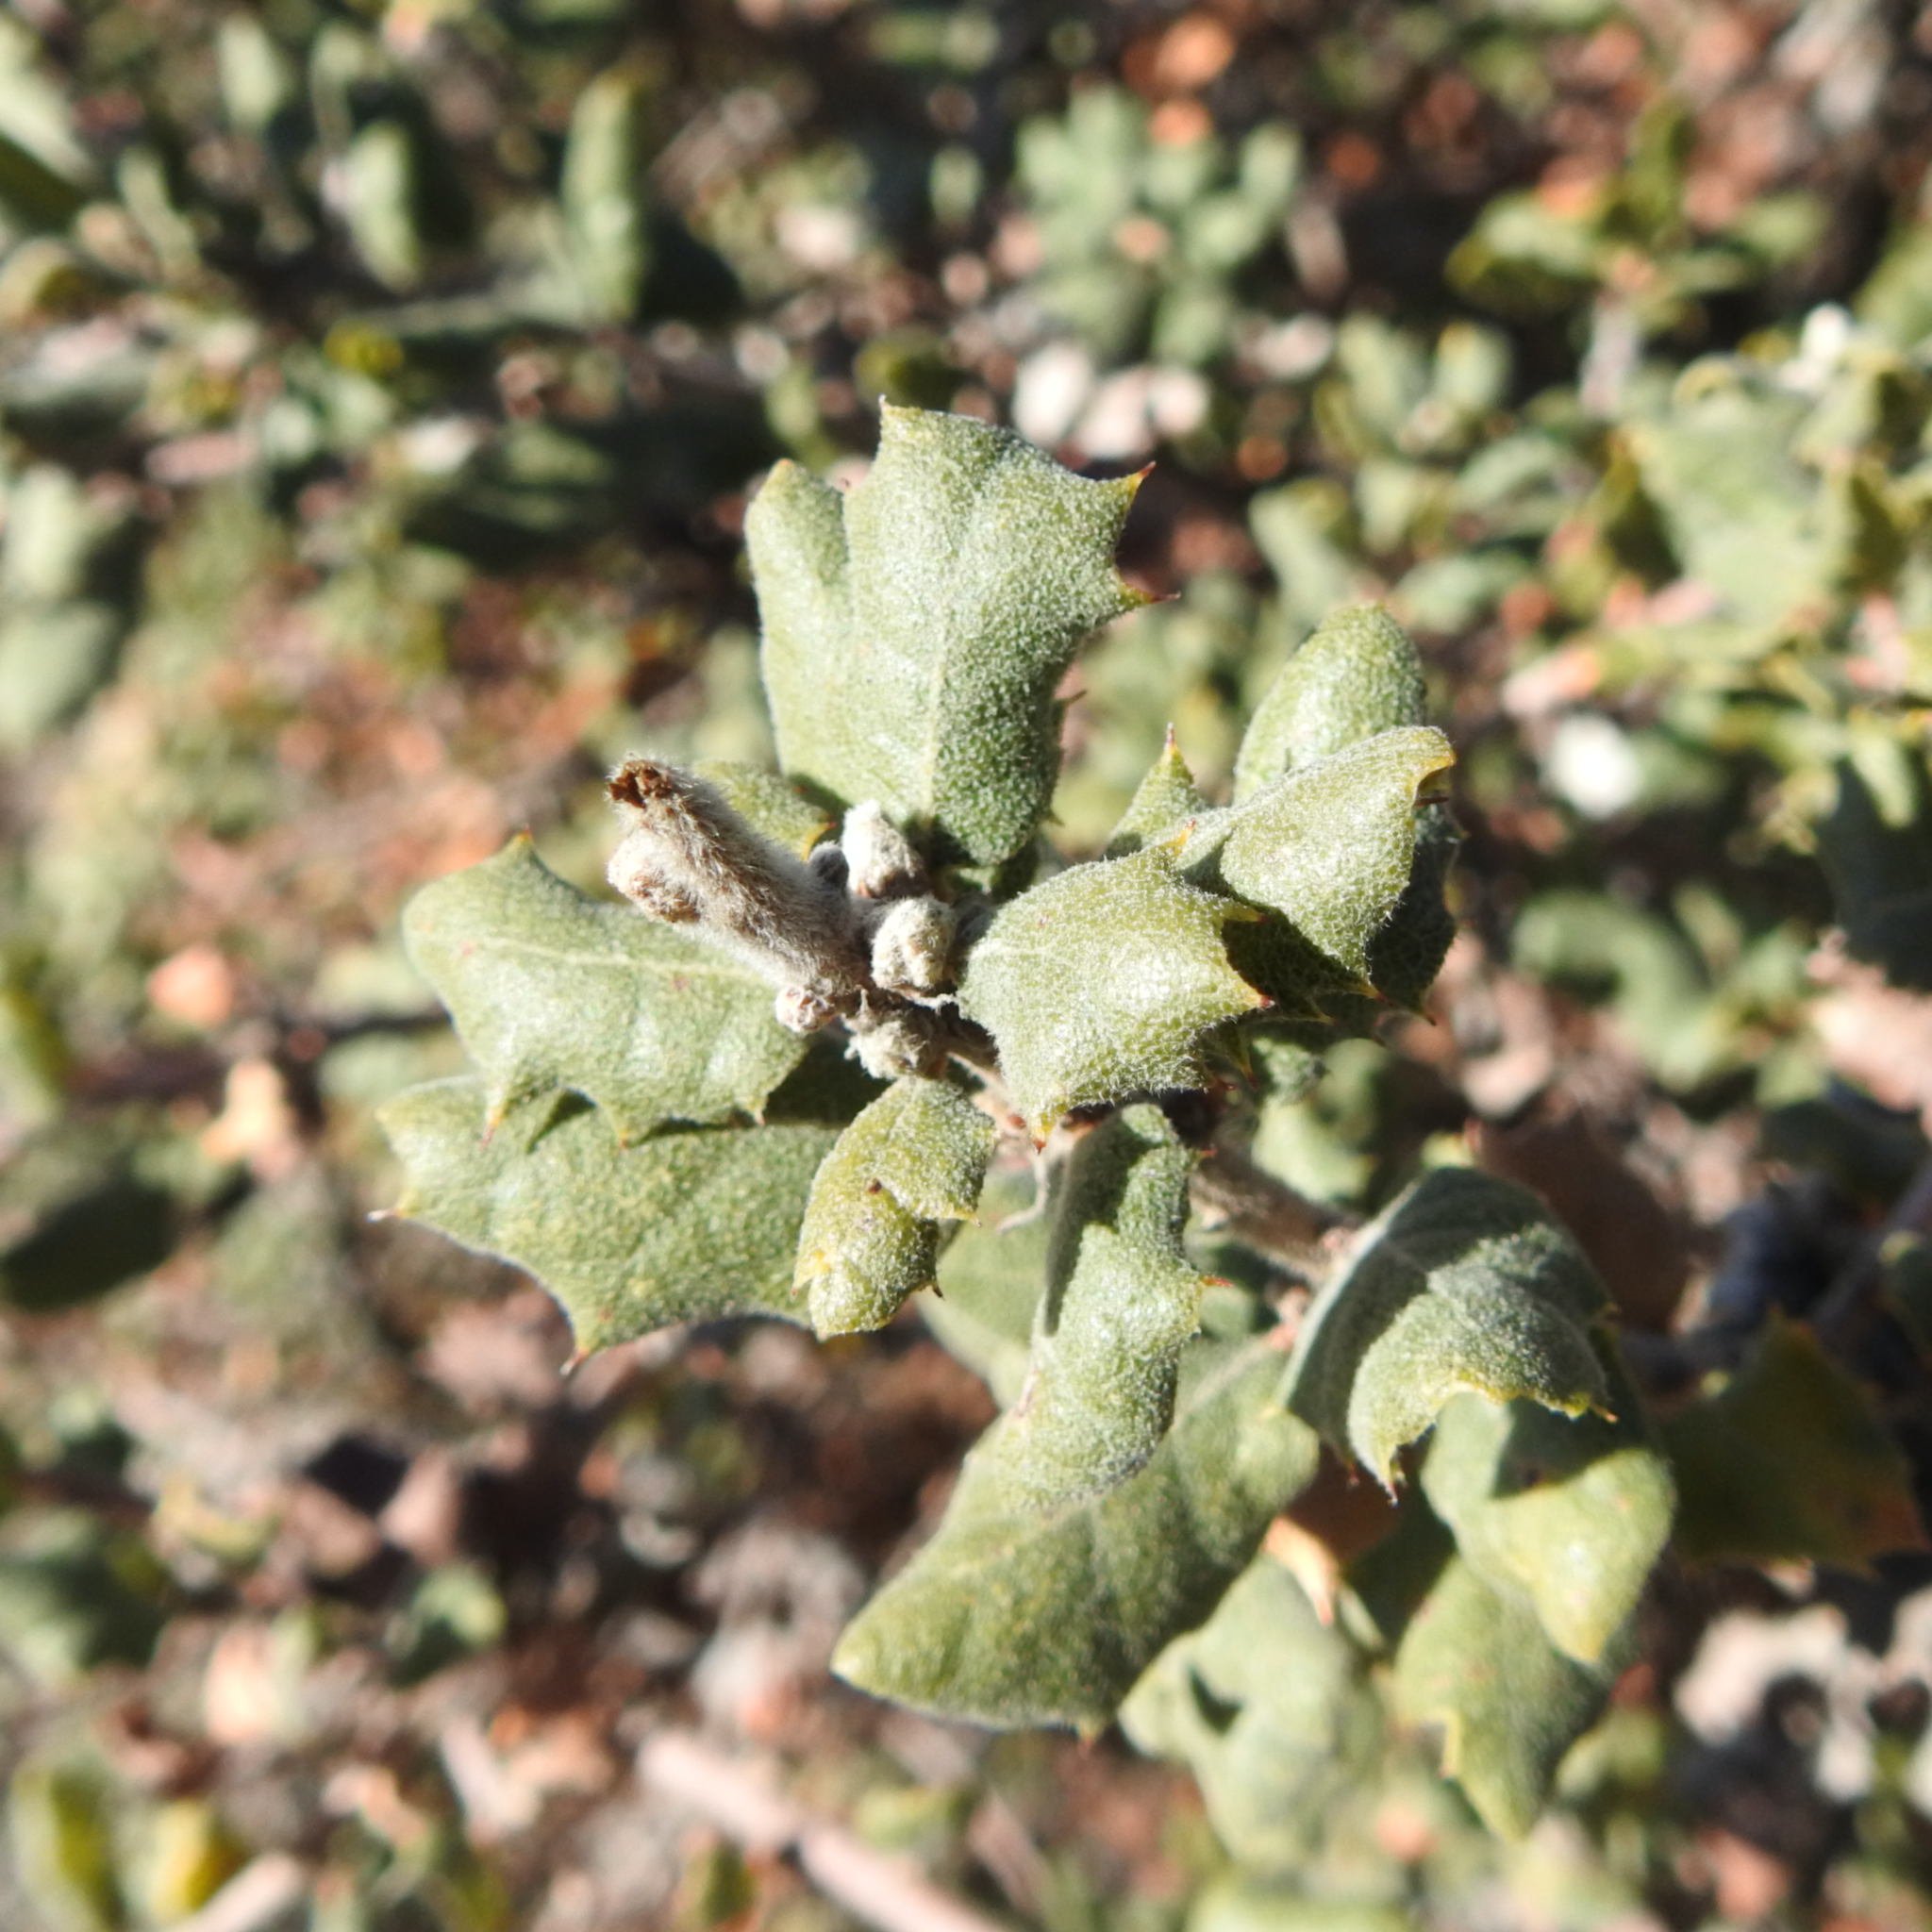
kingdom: Plantae
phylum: Tracheophyta
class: Magnoliopsida
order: Fagales
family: Fagaceae
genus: Quercus
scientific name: Quercus durata
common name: Leather oak
